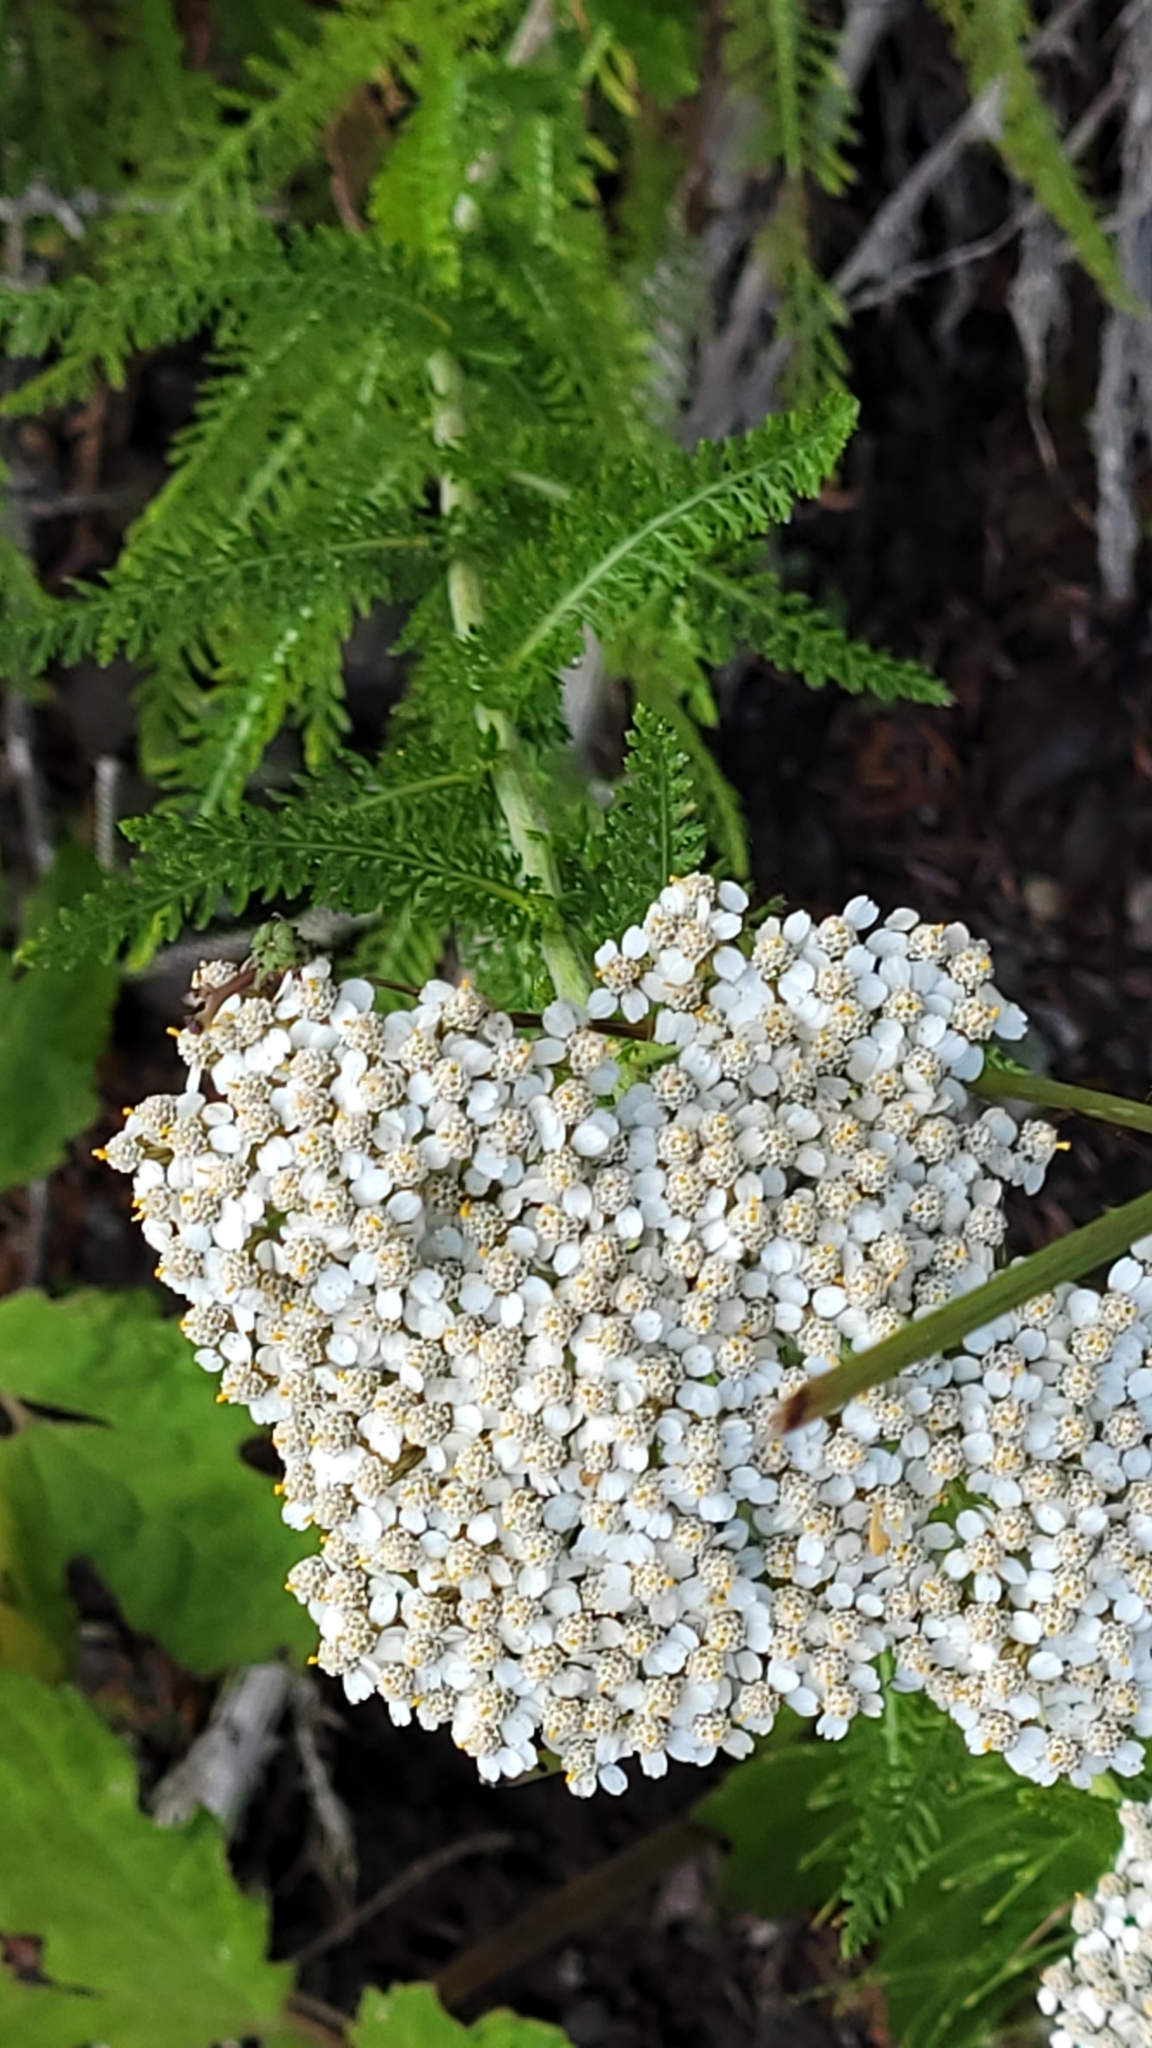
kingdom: Plantae
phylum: Tracheophyta
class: Magnoliopsida
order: Asterales
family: Asteraceae
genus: Achillea
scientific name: Achillea millefolium
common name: Yarrow
